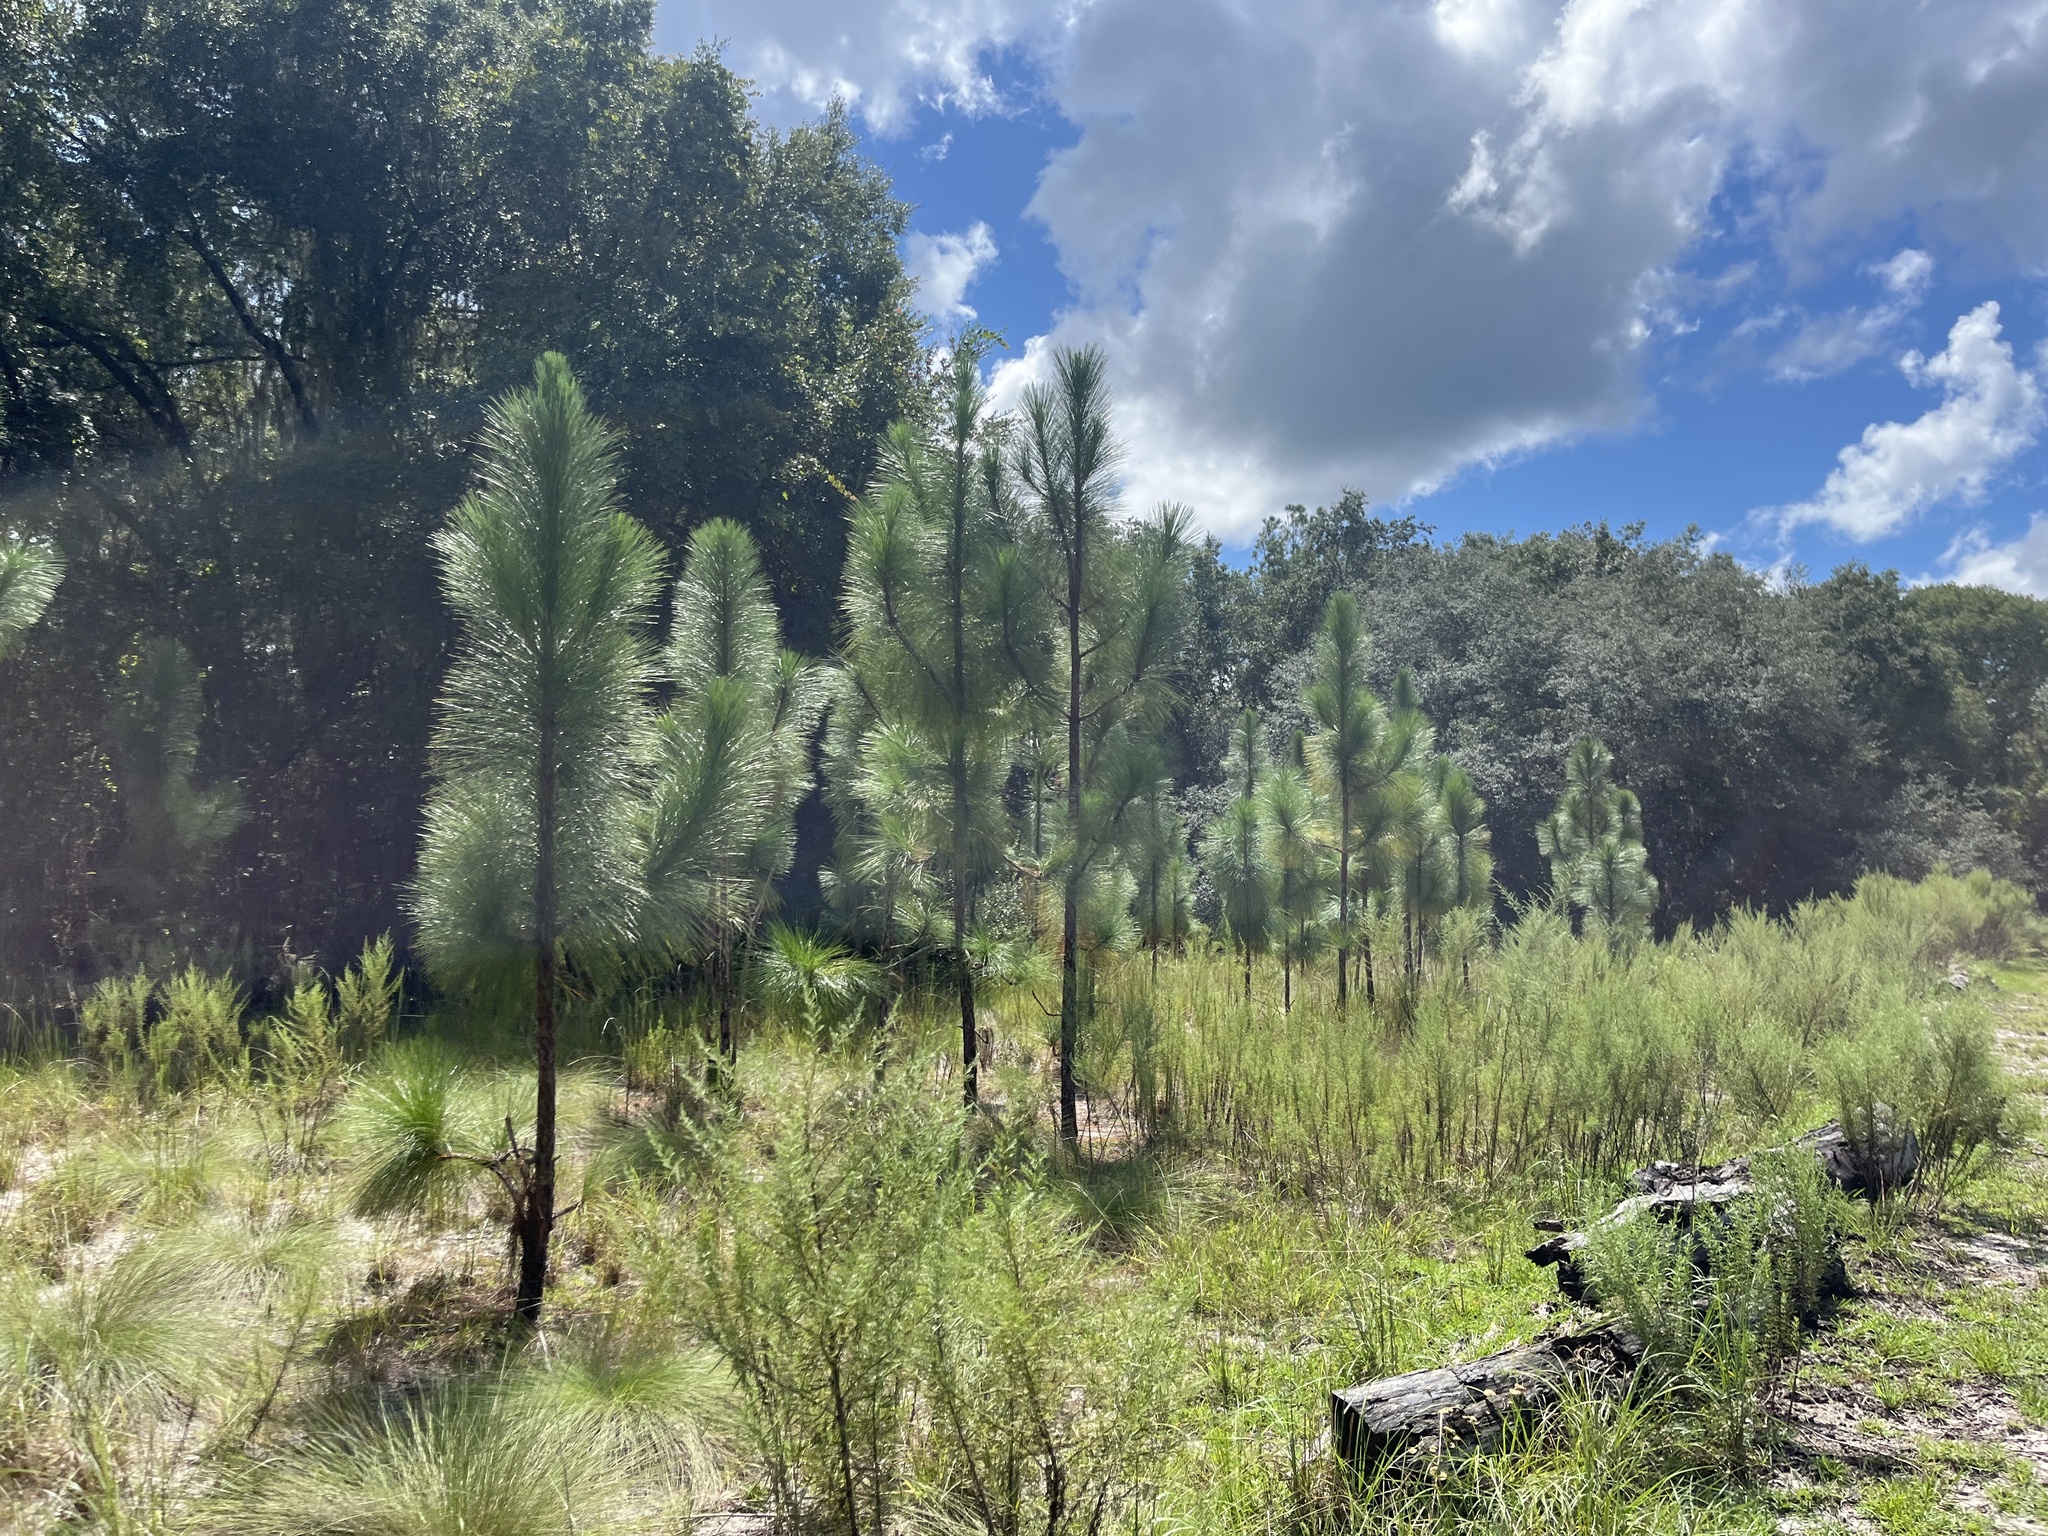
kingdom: Plantae
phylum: Tracheophyta
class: Pinopsida
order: Pinales
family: Pinaceae
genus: Pinus
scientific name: Pinus palustris
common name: Longleaf pine
